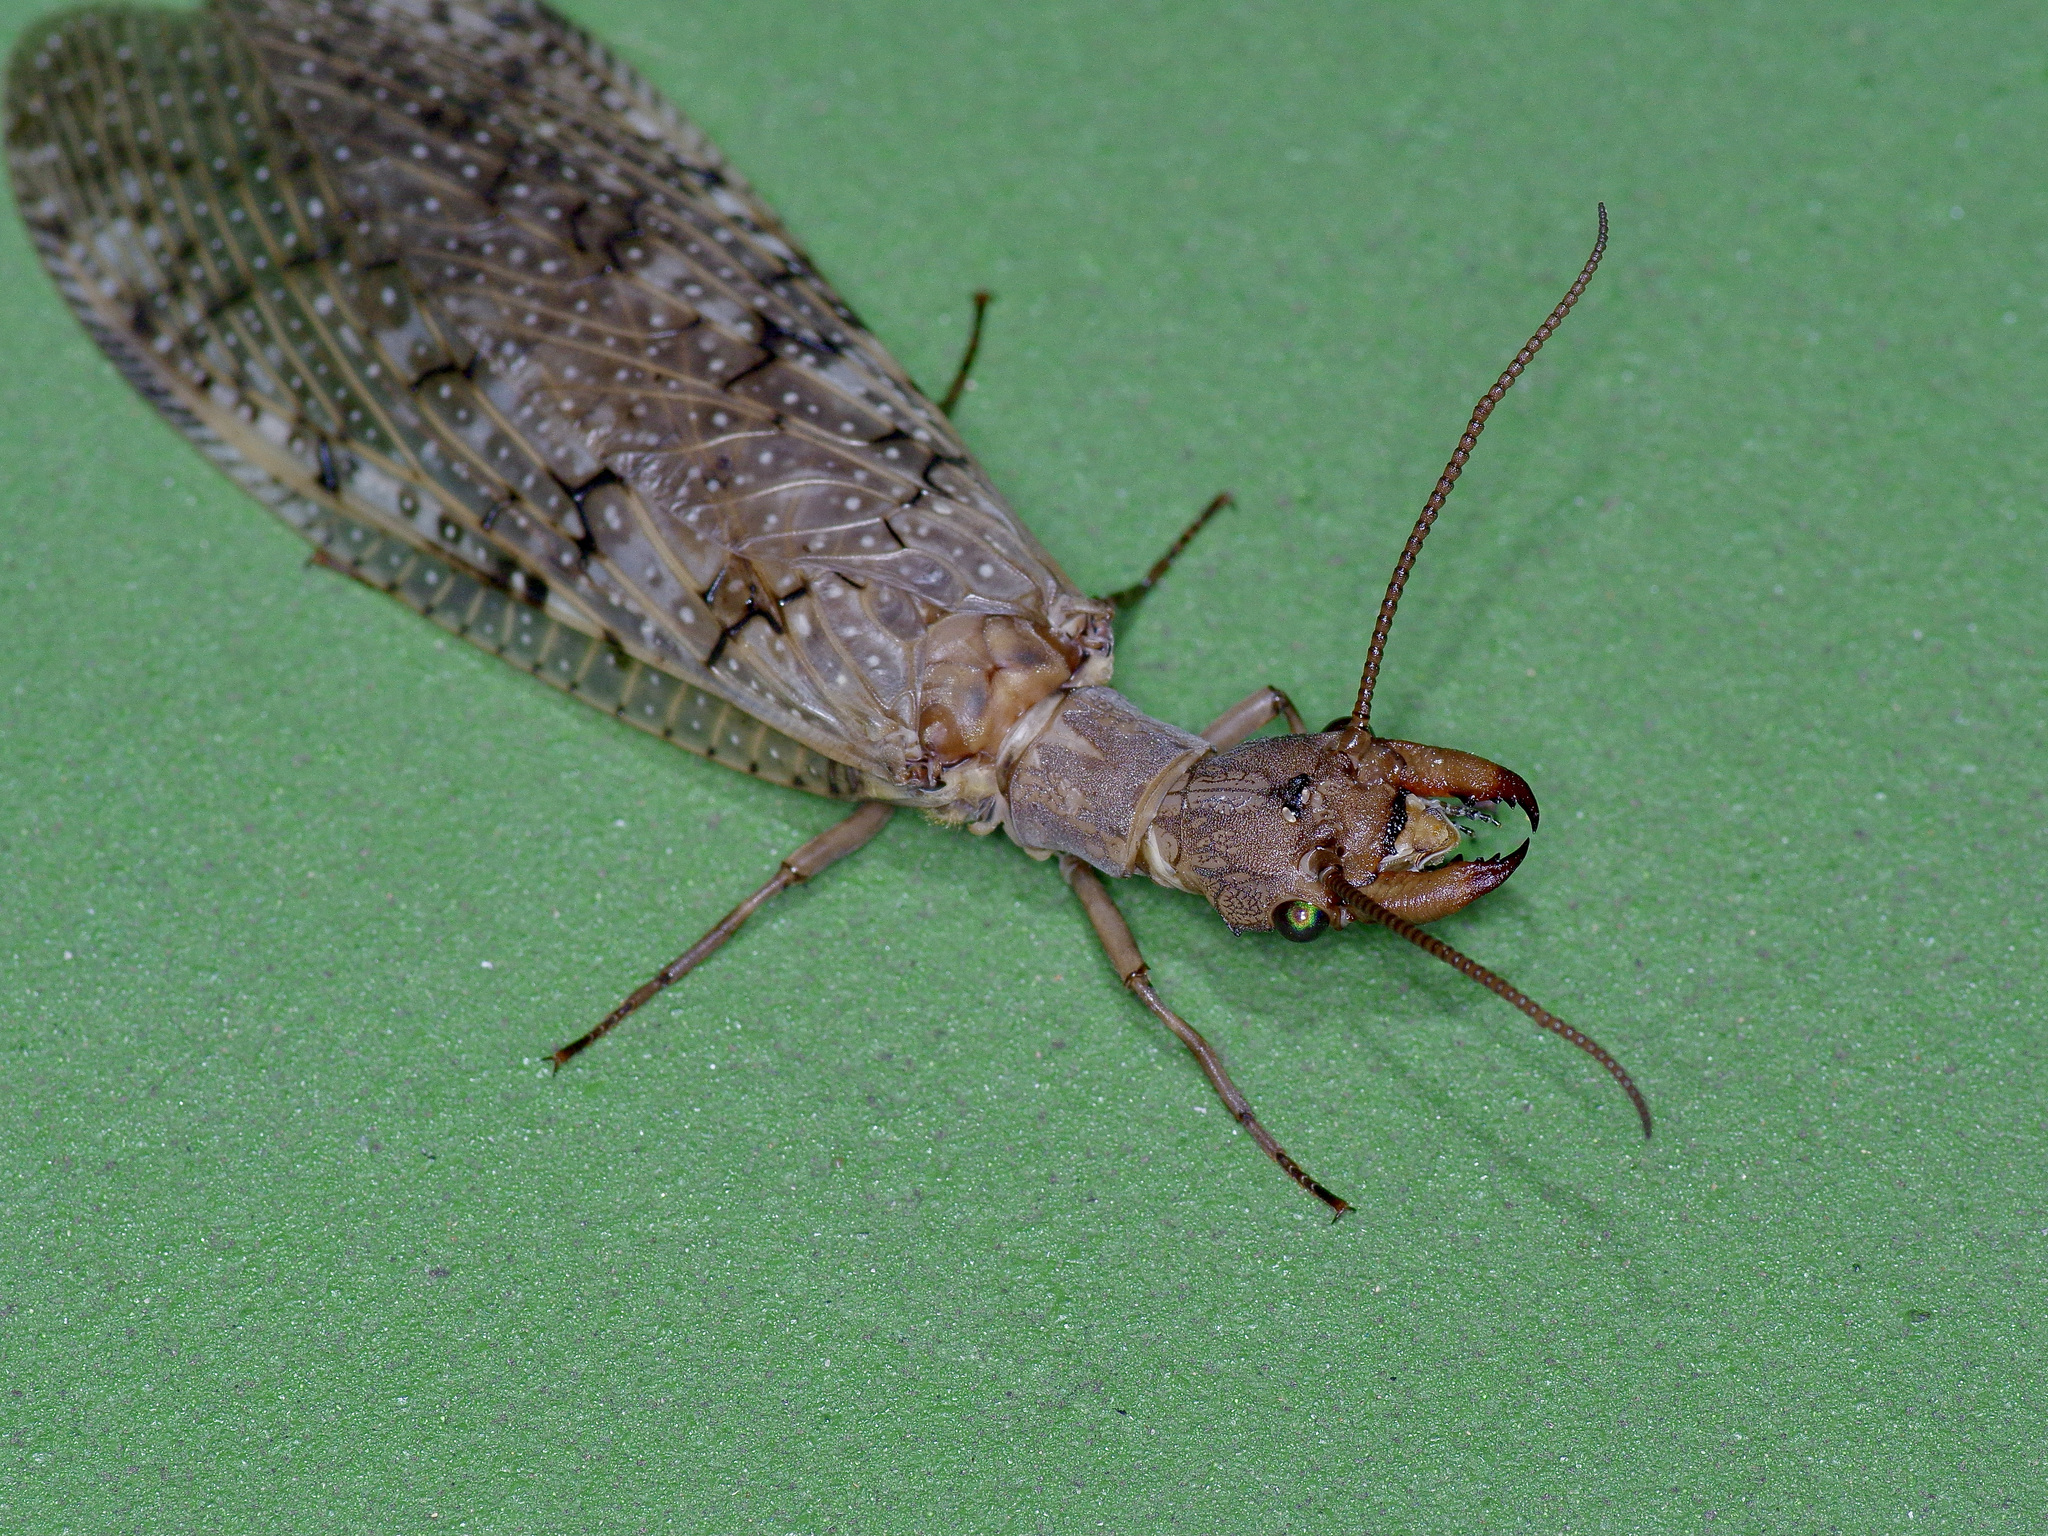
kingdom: Animalia
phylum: Arthropoda
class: Insecta
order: Megaloptera
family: Corydalidae
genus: Corydalus
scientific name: Corydalus cornutus
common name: Dobsonfly
